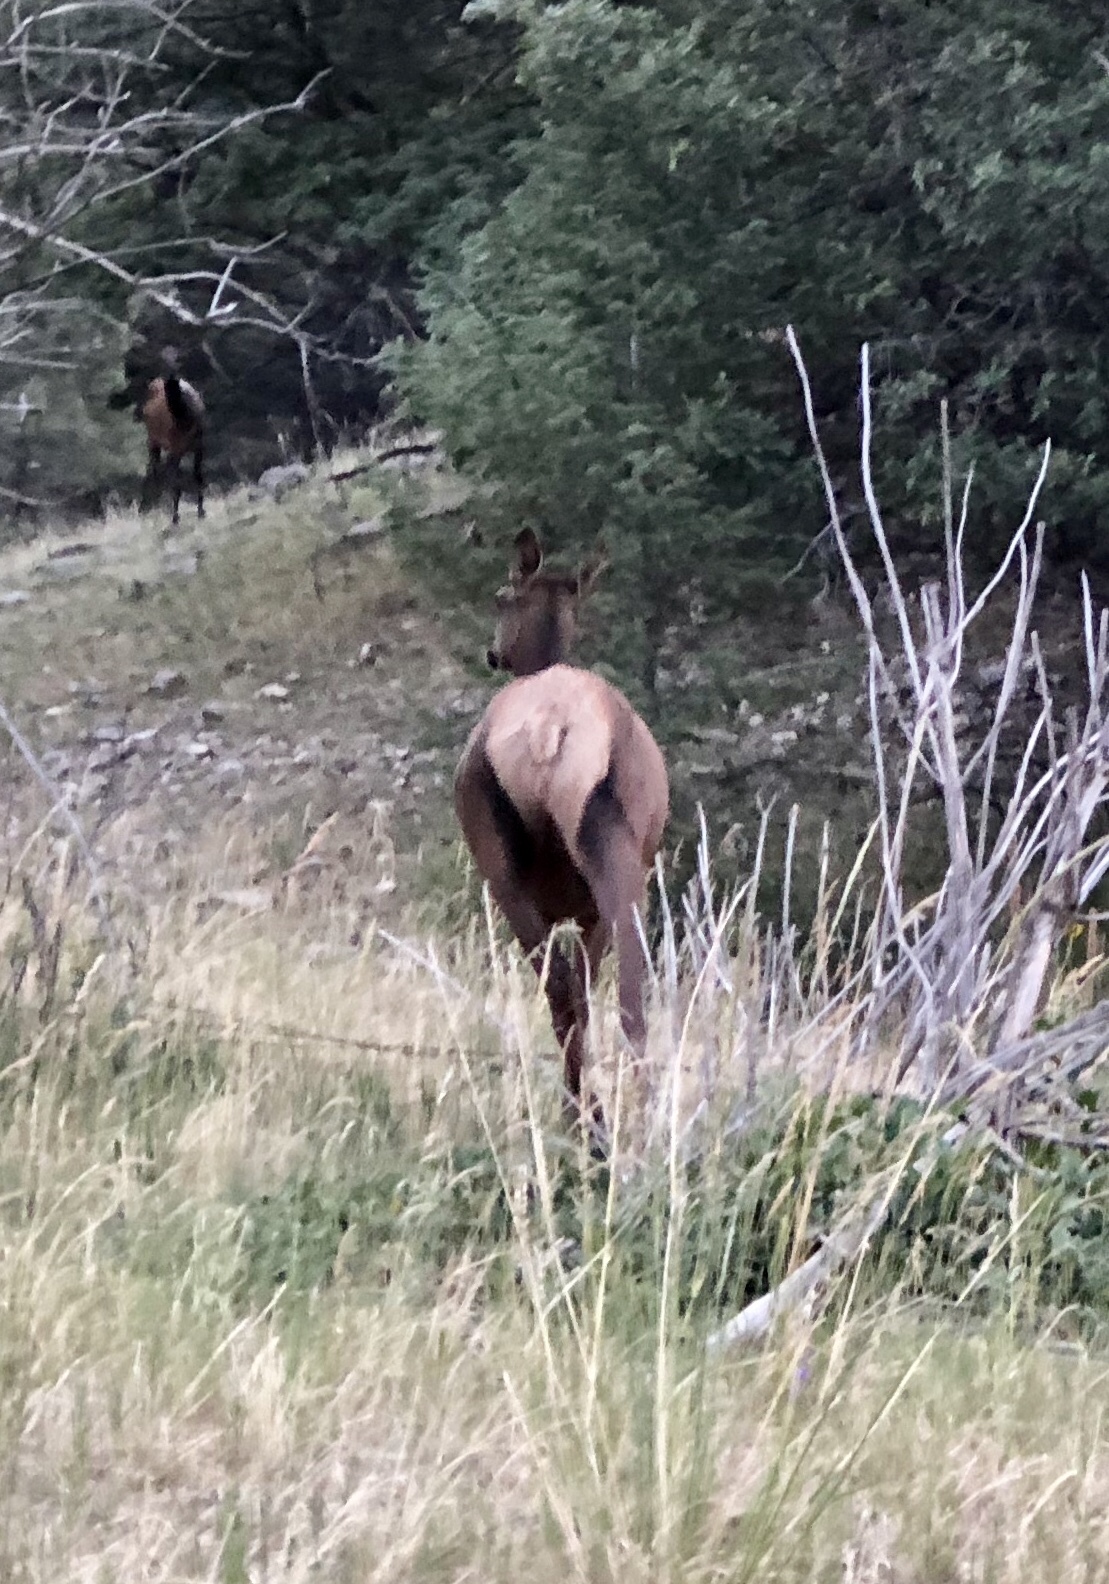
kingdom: Animalia
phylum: Chordata
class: Mammalia
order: Artiodactyla
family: Cervidae
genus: Cervus
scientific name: Cervus elaphus
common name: Red deer
